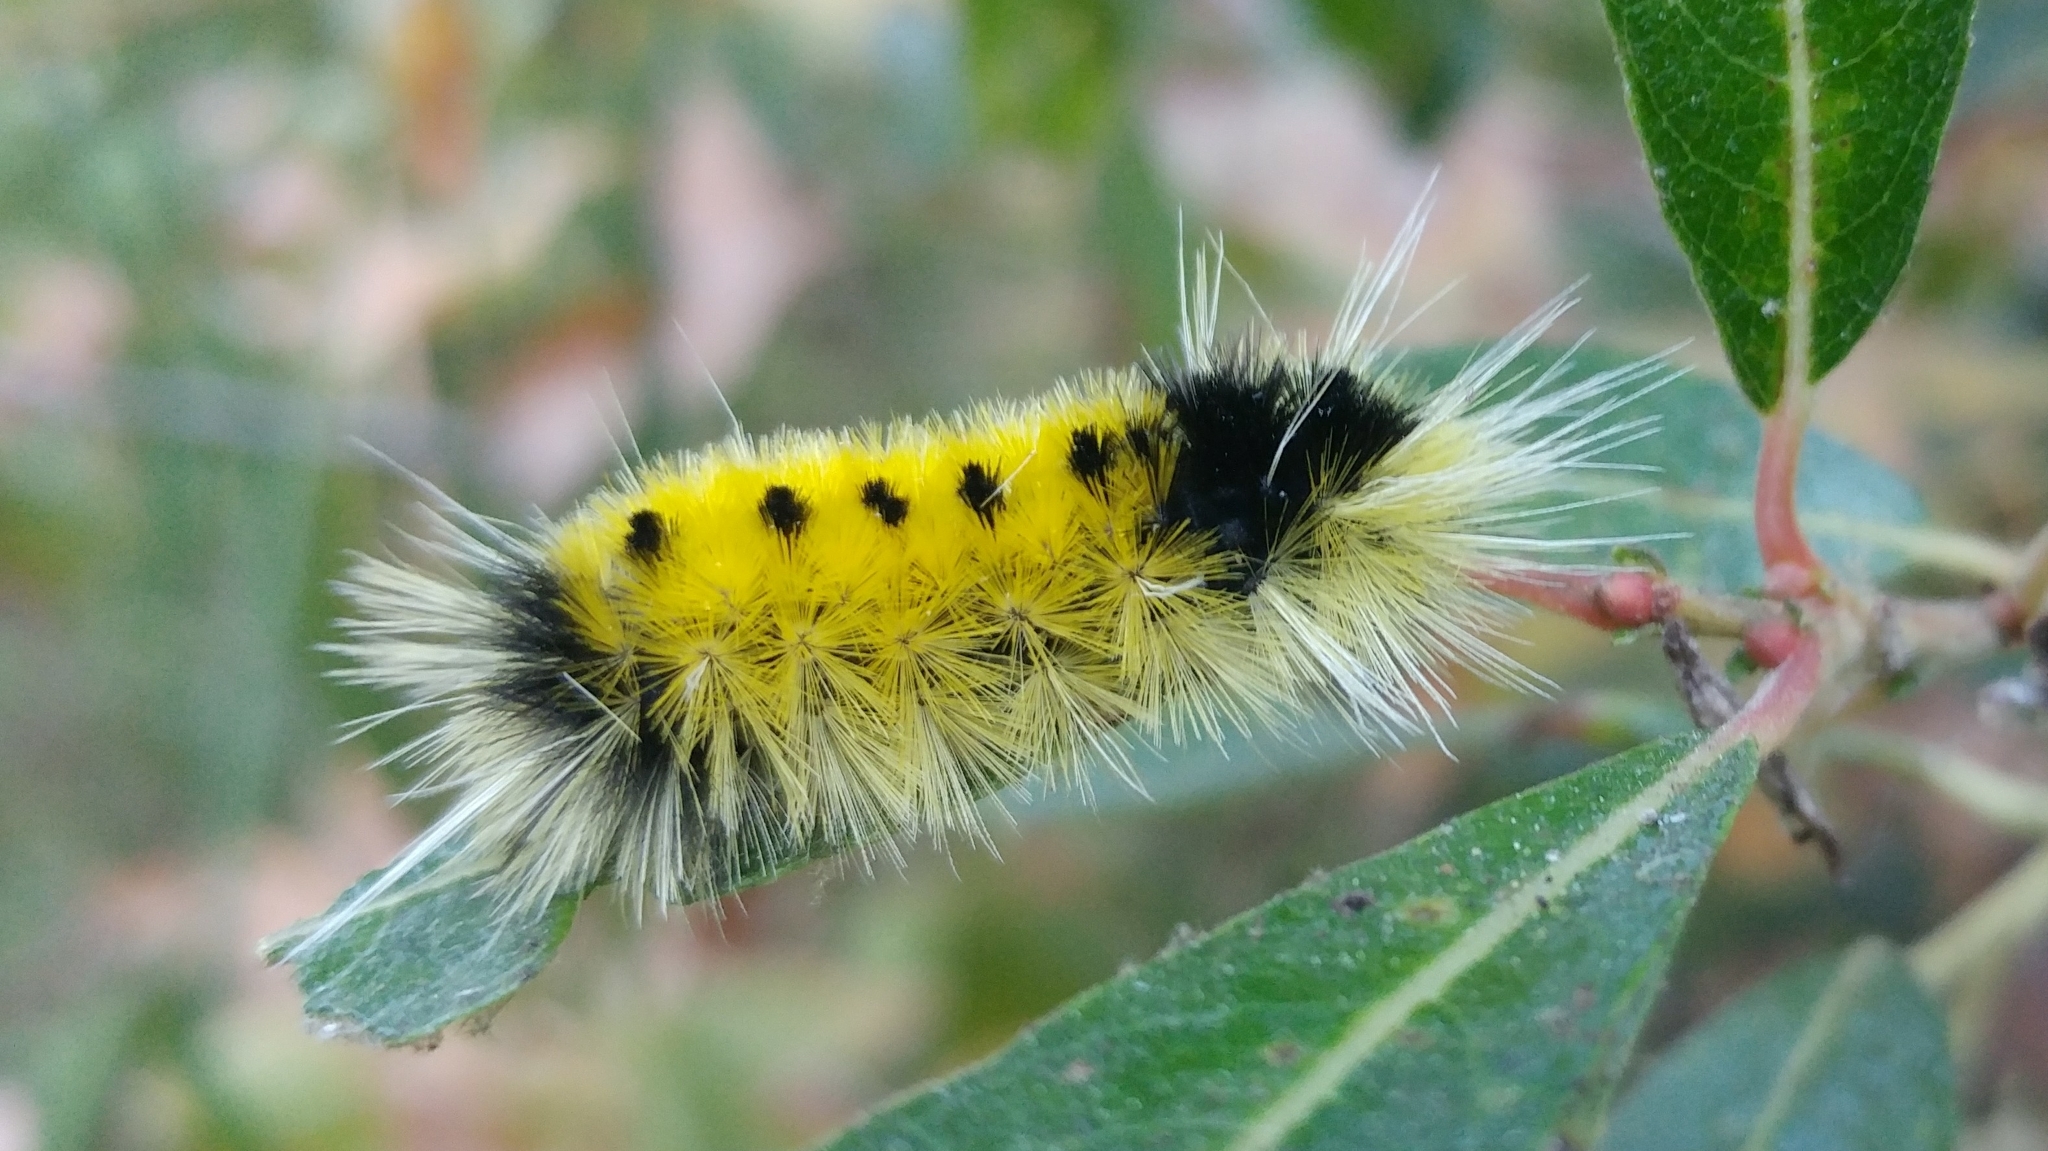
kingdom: Animalia
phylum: Arthropoda
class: Insecta
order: Lepidoptera
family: Erebidae
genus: Lophocampa
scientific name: Lophocampa maculata
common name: Spotted tussock moth
